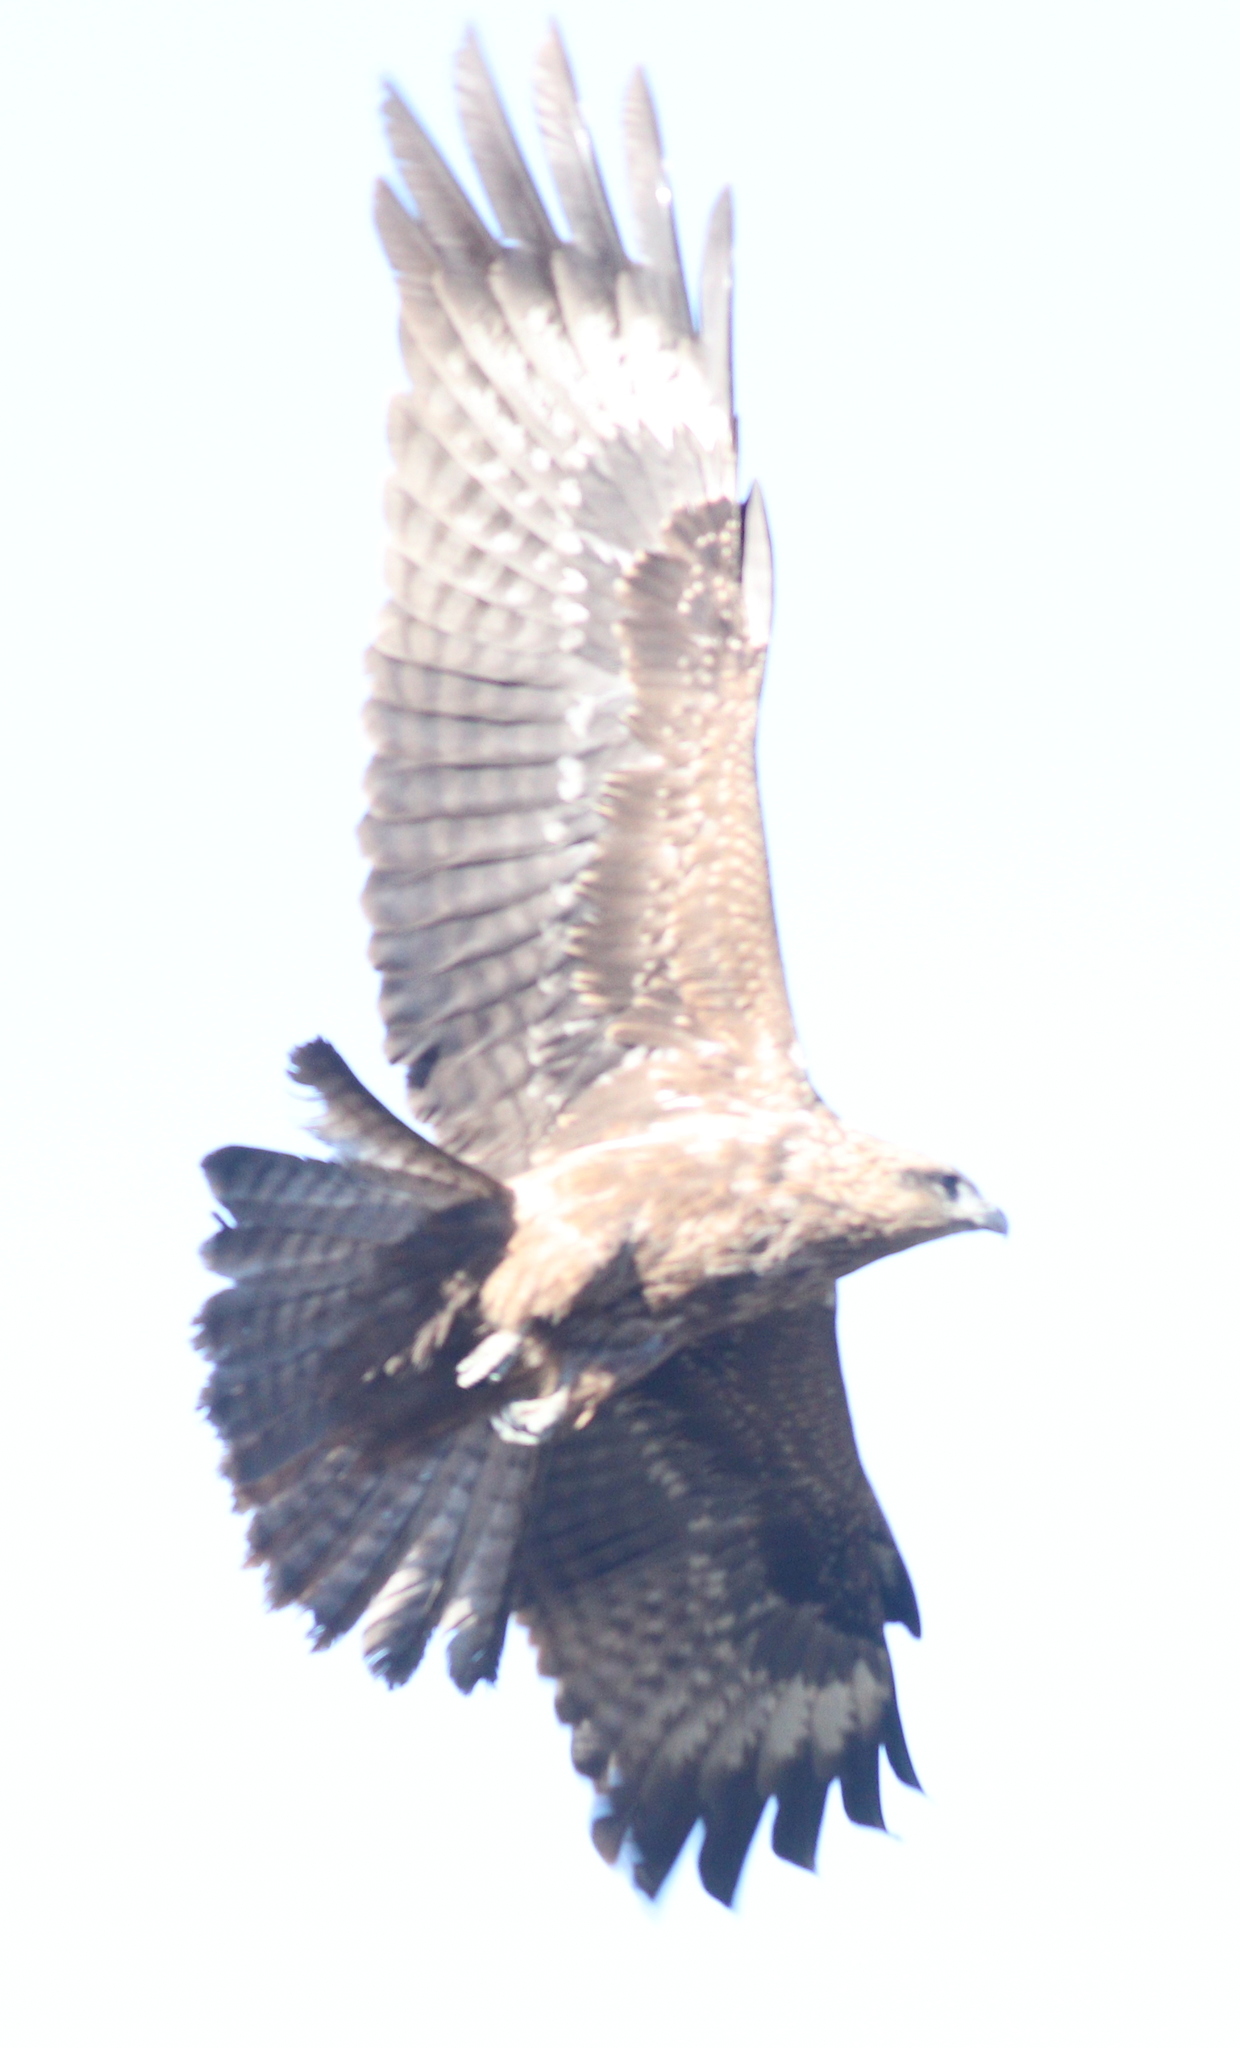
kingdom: Animalia
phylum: Chordata
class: Aves
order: Accipitriformes
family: Accipitridae
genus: Milvus
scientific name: Milvus migrans
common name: Black kite
